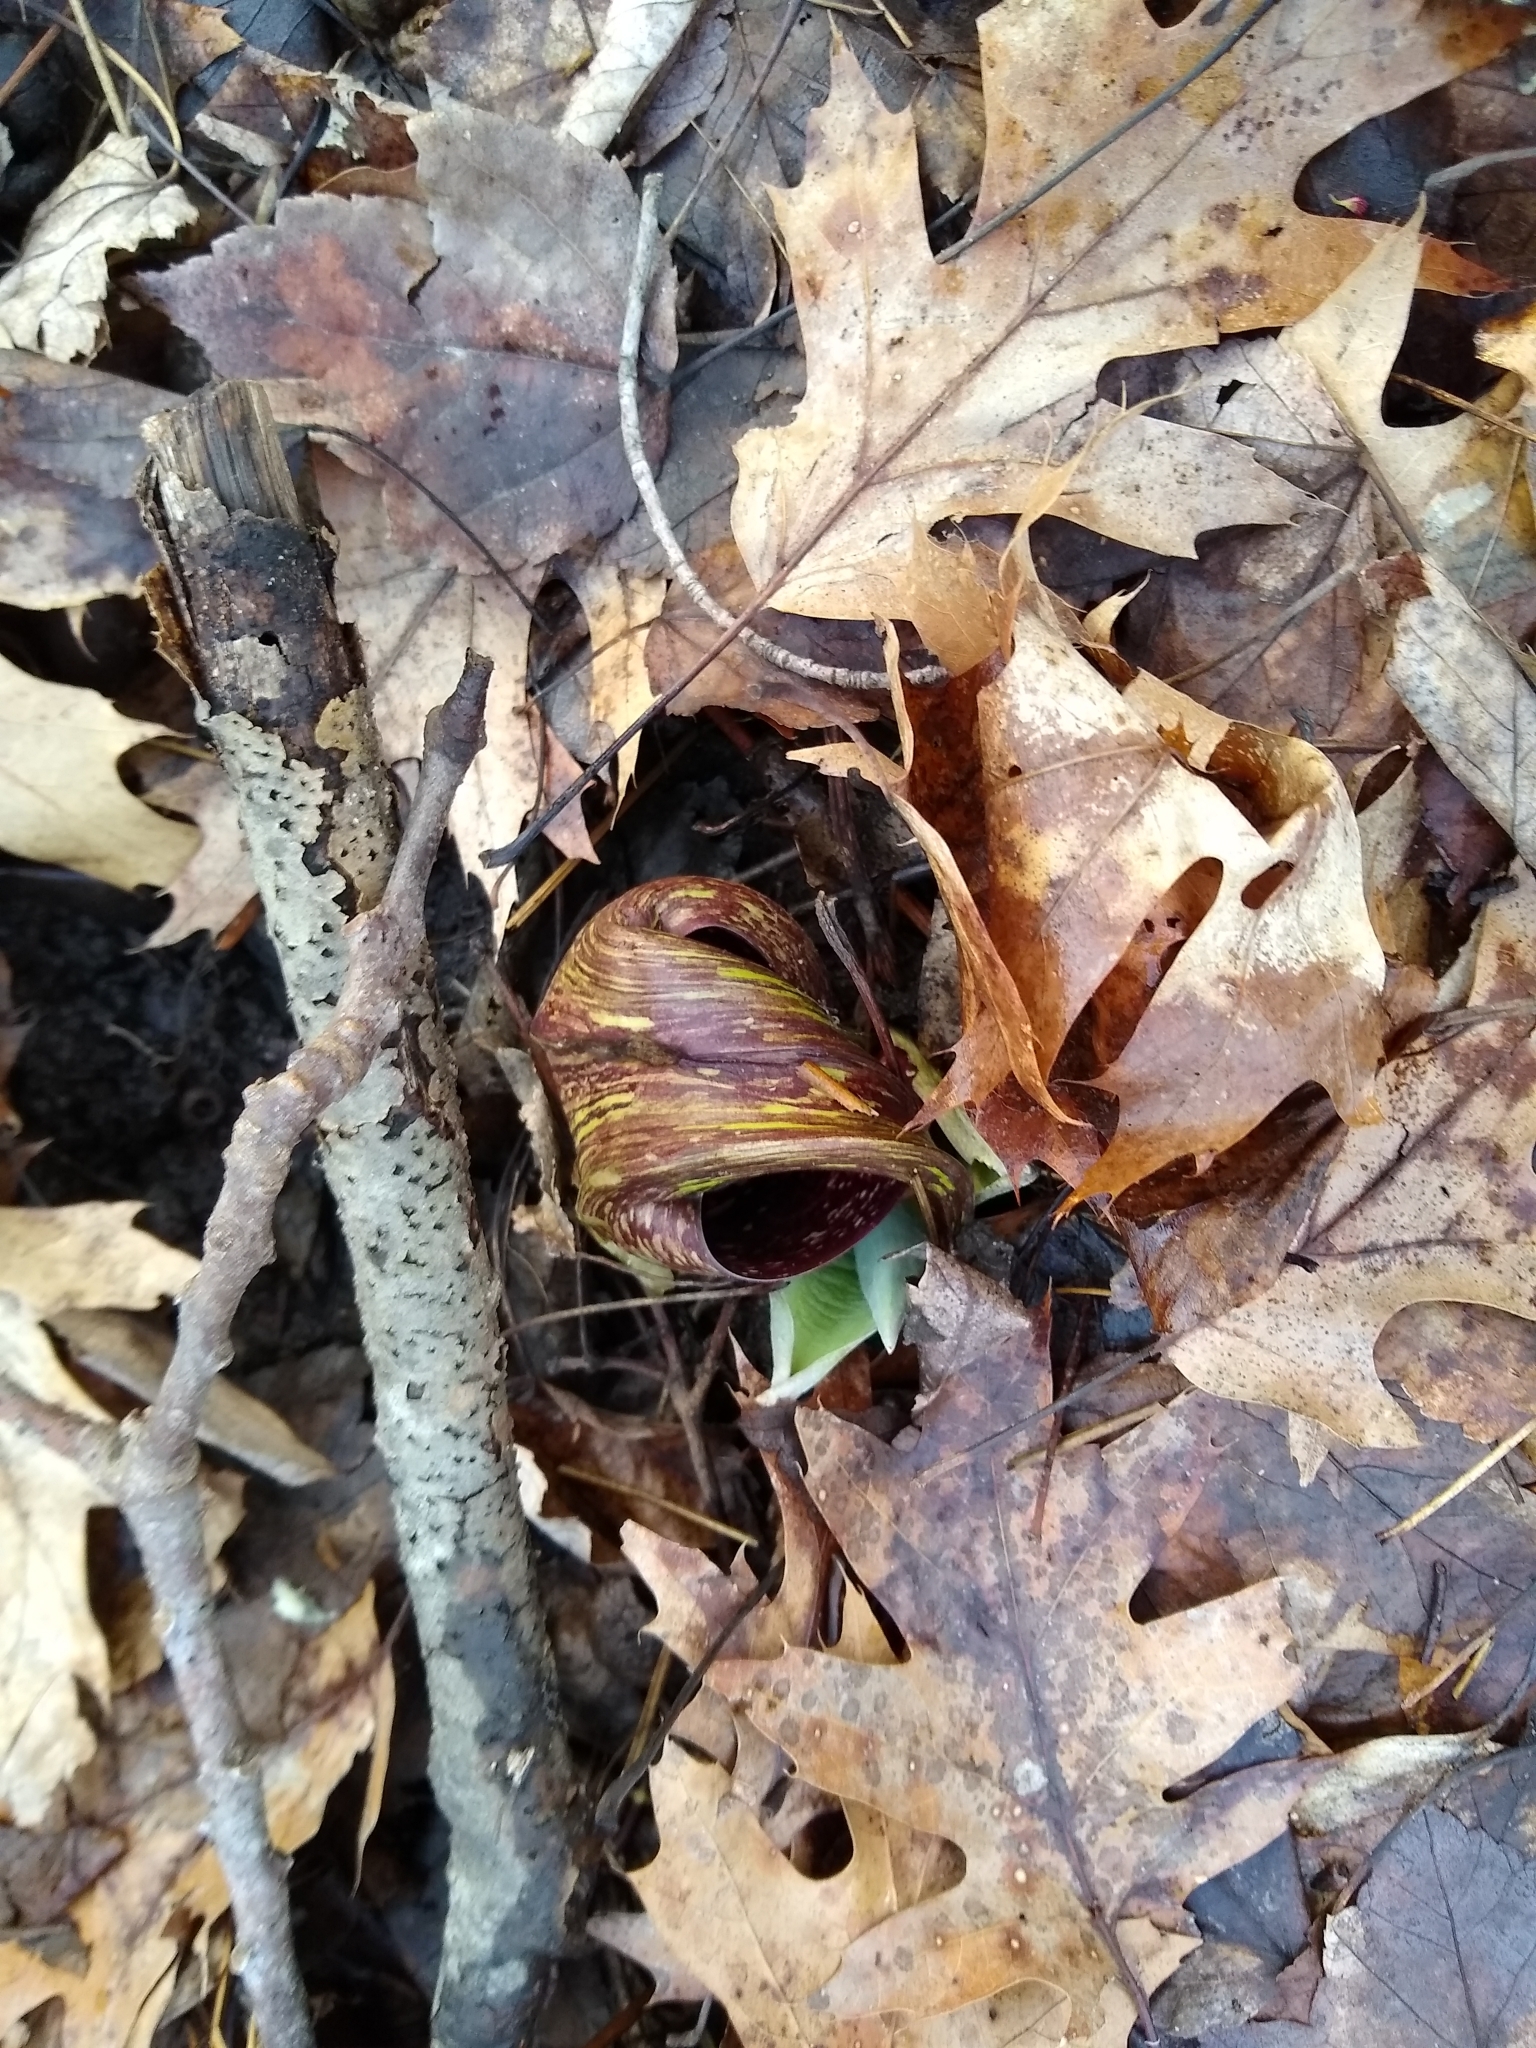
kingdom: Plantae
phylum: Tracheophyta
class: Liliopsida
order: Alismatales
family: Araceae
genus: Symplocarpus
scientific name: Symplocarpus foetidus
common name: Eastern skunk cabbage
